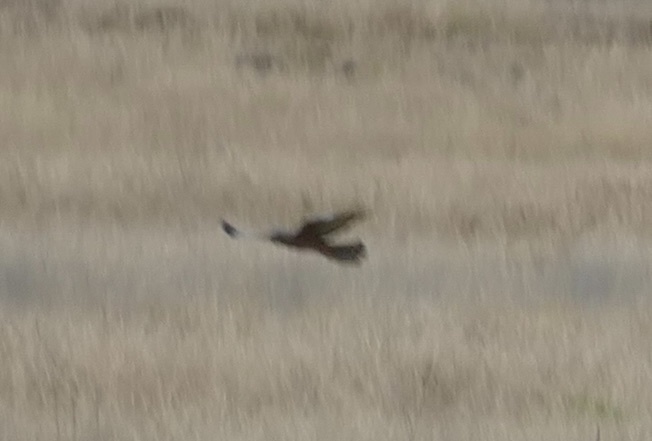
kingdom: Animalia
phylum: Chordata
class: Aves
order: Accipitriformes
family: Accipitridae
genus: Circus
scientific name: Circus assimilis
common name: Spotted harrier
